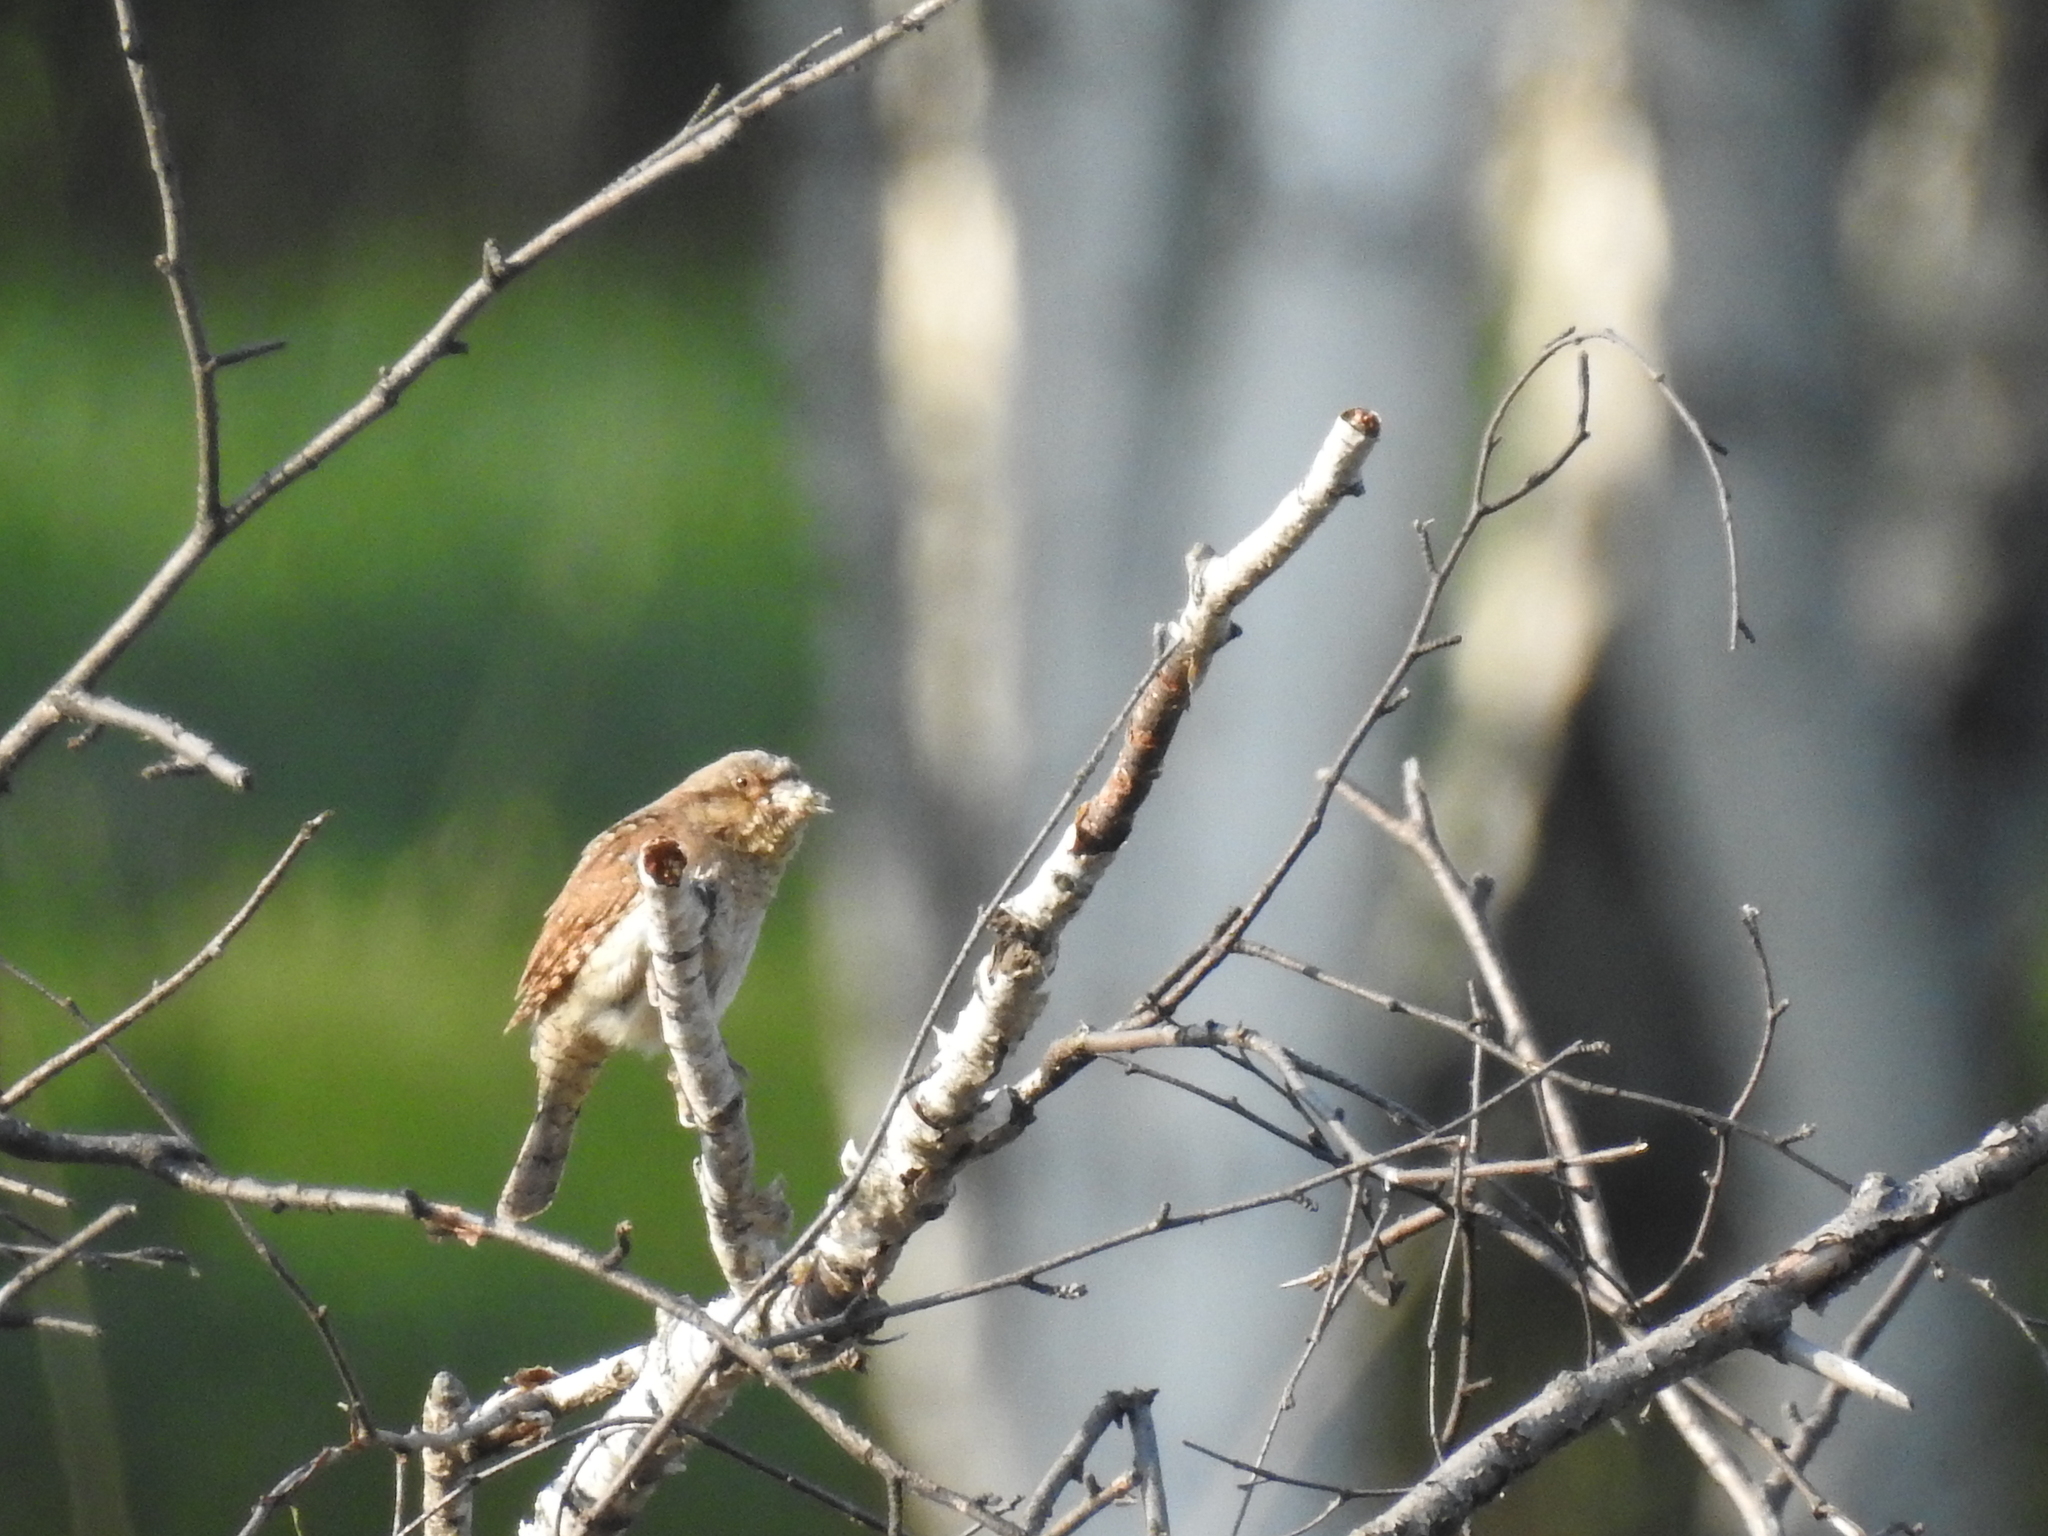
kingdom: Animalia
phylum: Chordata
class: Aves
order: Piciformes
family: Picidae
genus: Jynx
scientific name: Jynx torquilla
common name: Eurasian wryneck
